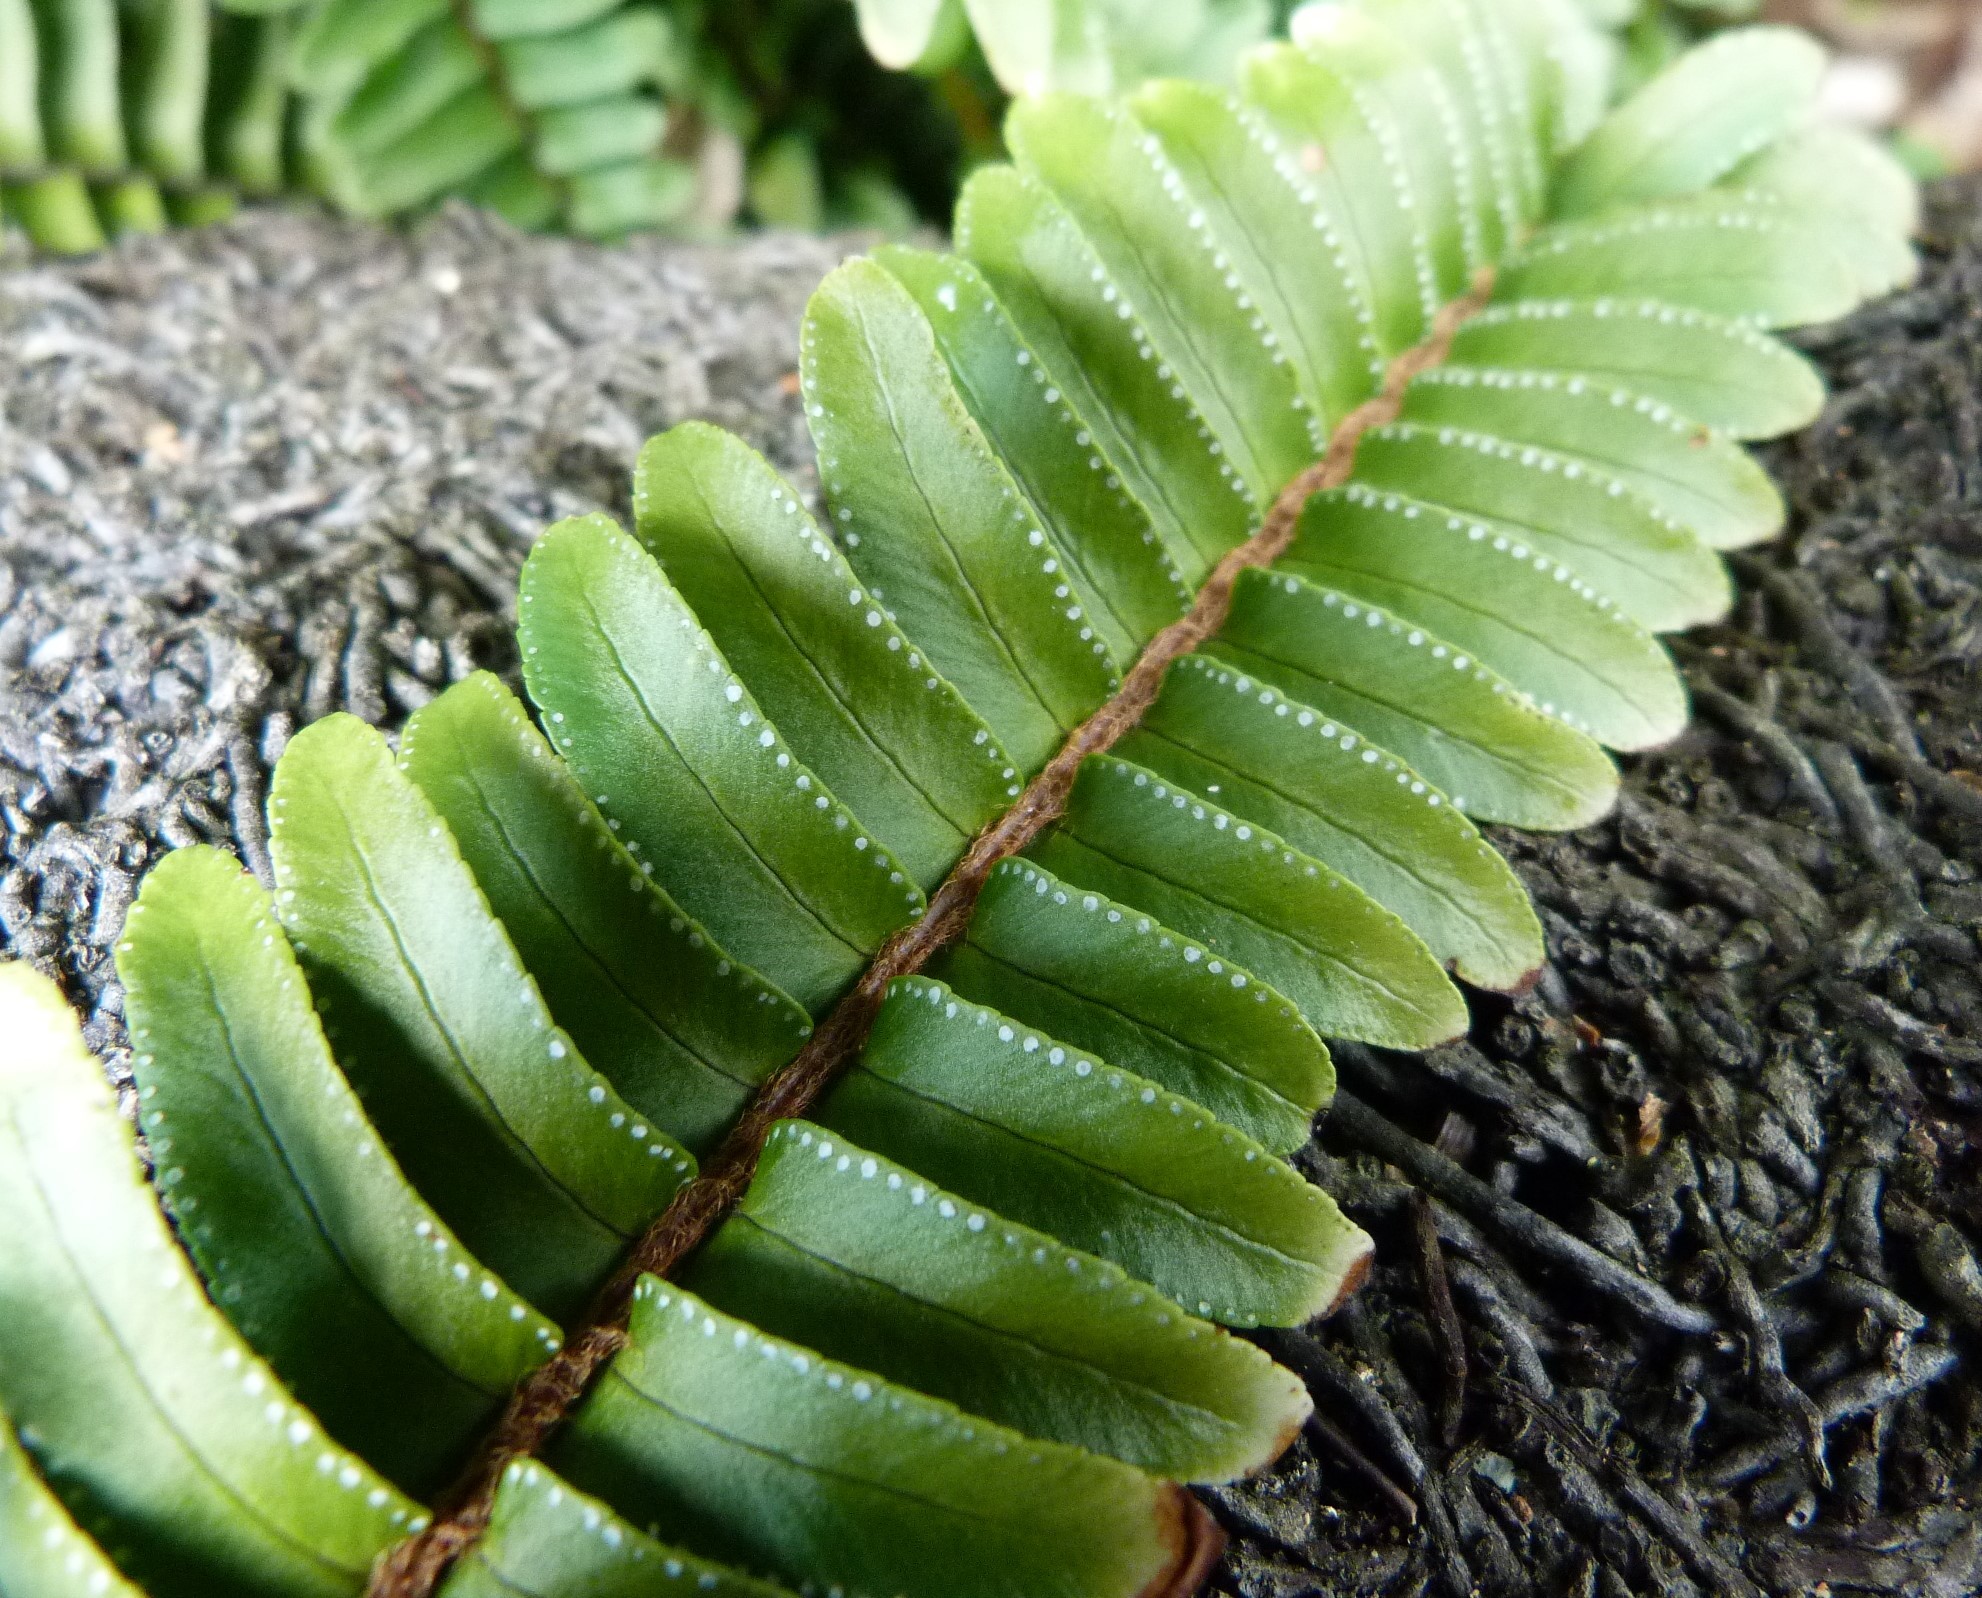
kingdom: Plantae
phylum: Tracheophyta
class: Polypodiopsida
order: Polypodiales
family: Nephrolepidaceae
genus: Nephrolepis
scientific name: Nephrolepis cordifolia
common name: Narrow swordfern
